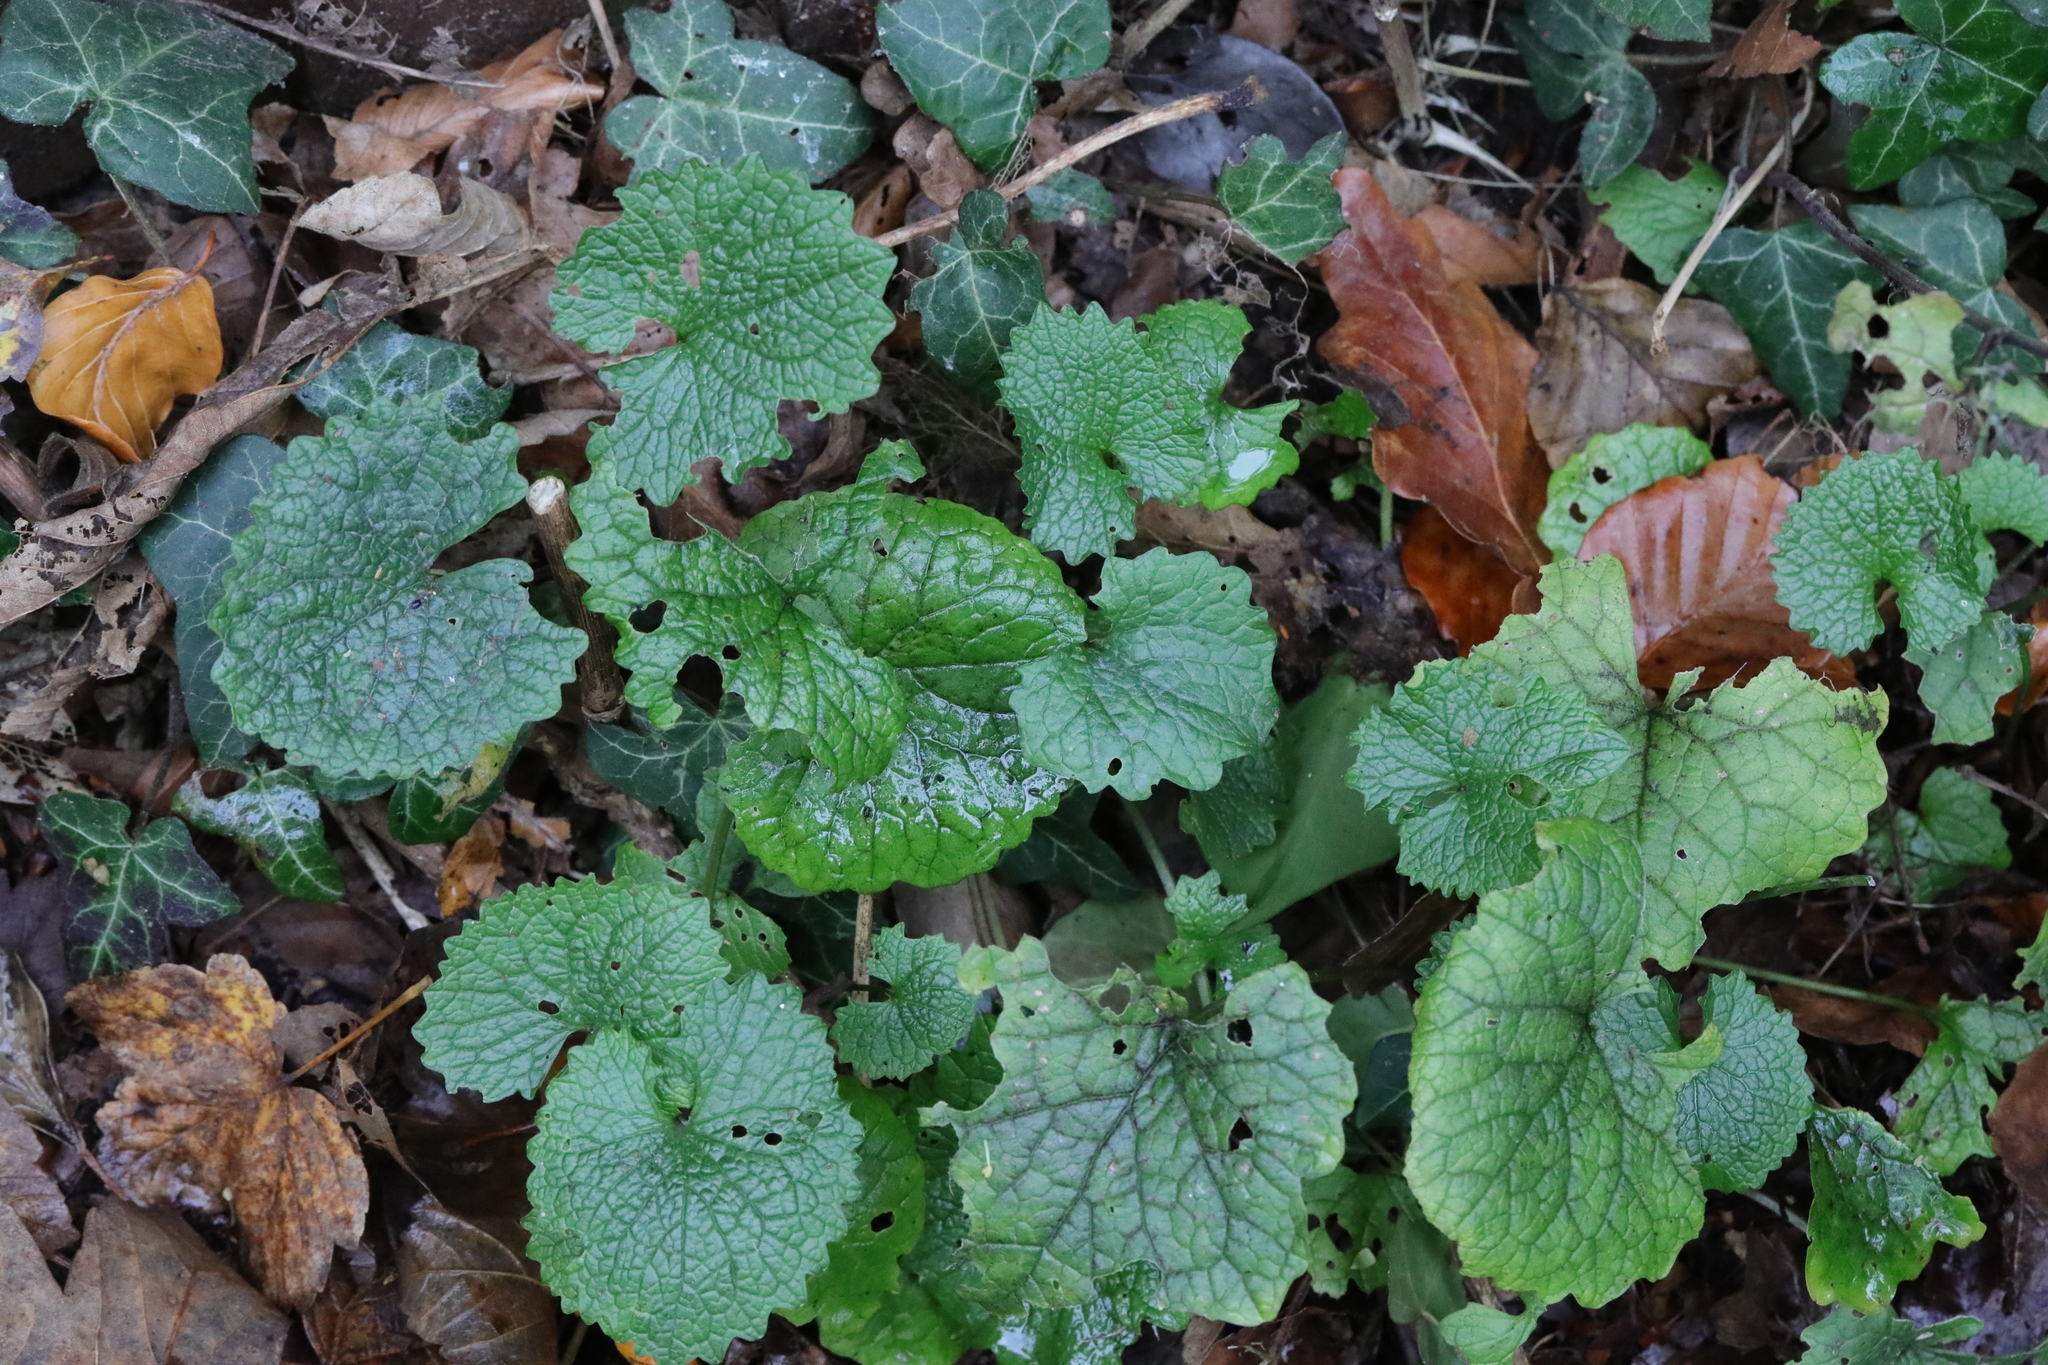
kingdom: Plantae
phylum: Tracheophyta
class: Magnoliopsida
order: Brassicales
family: Brassicaceae
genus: Alliaria
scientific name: Alliaria petiolata
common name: Garlic mustard
